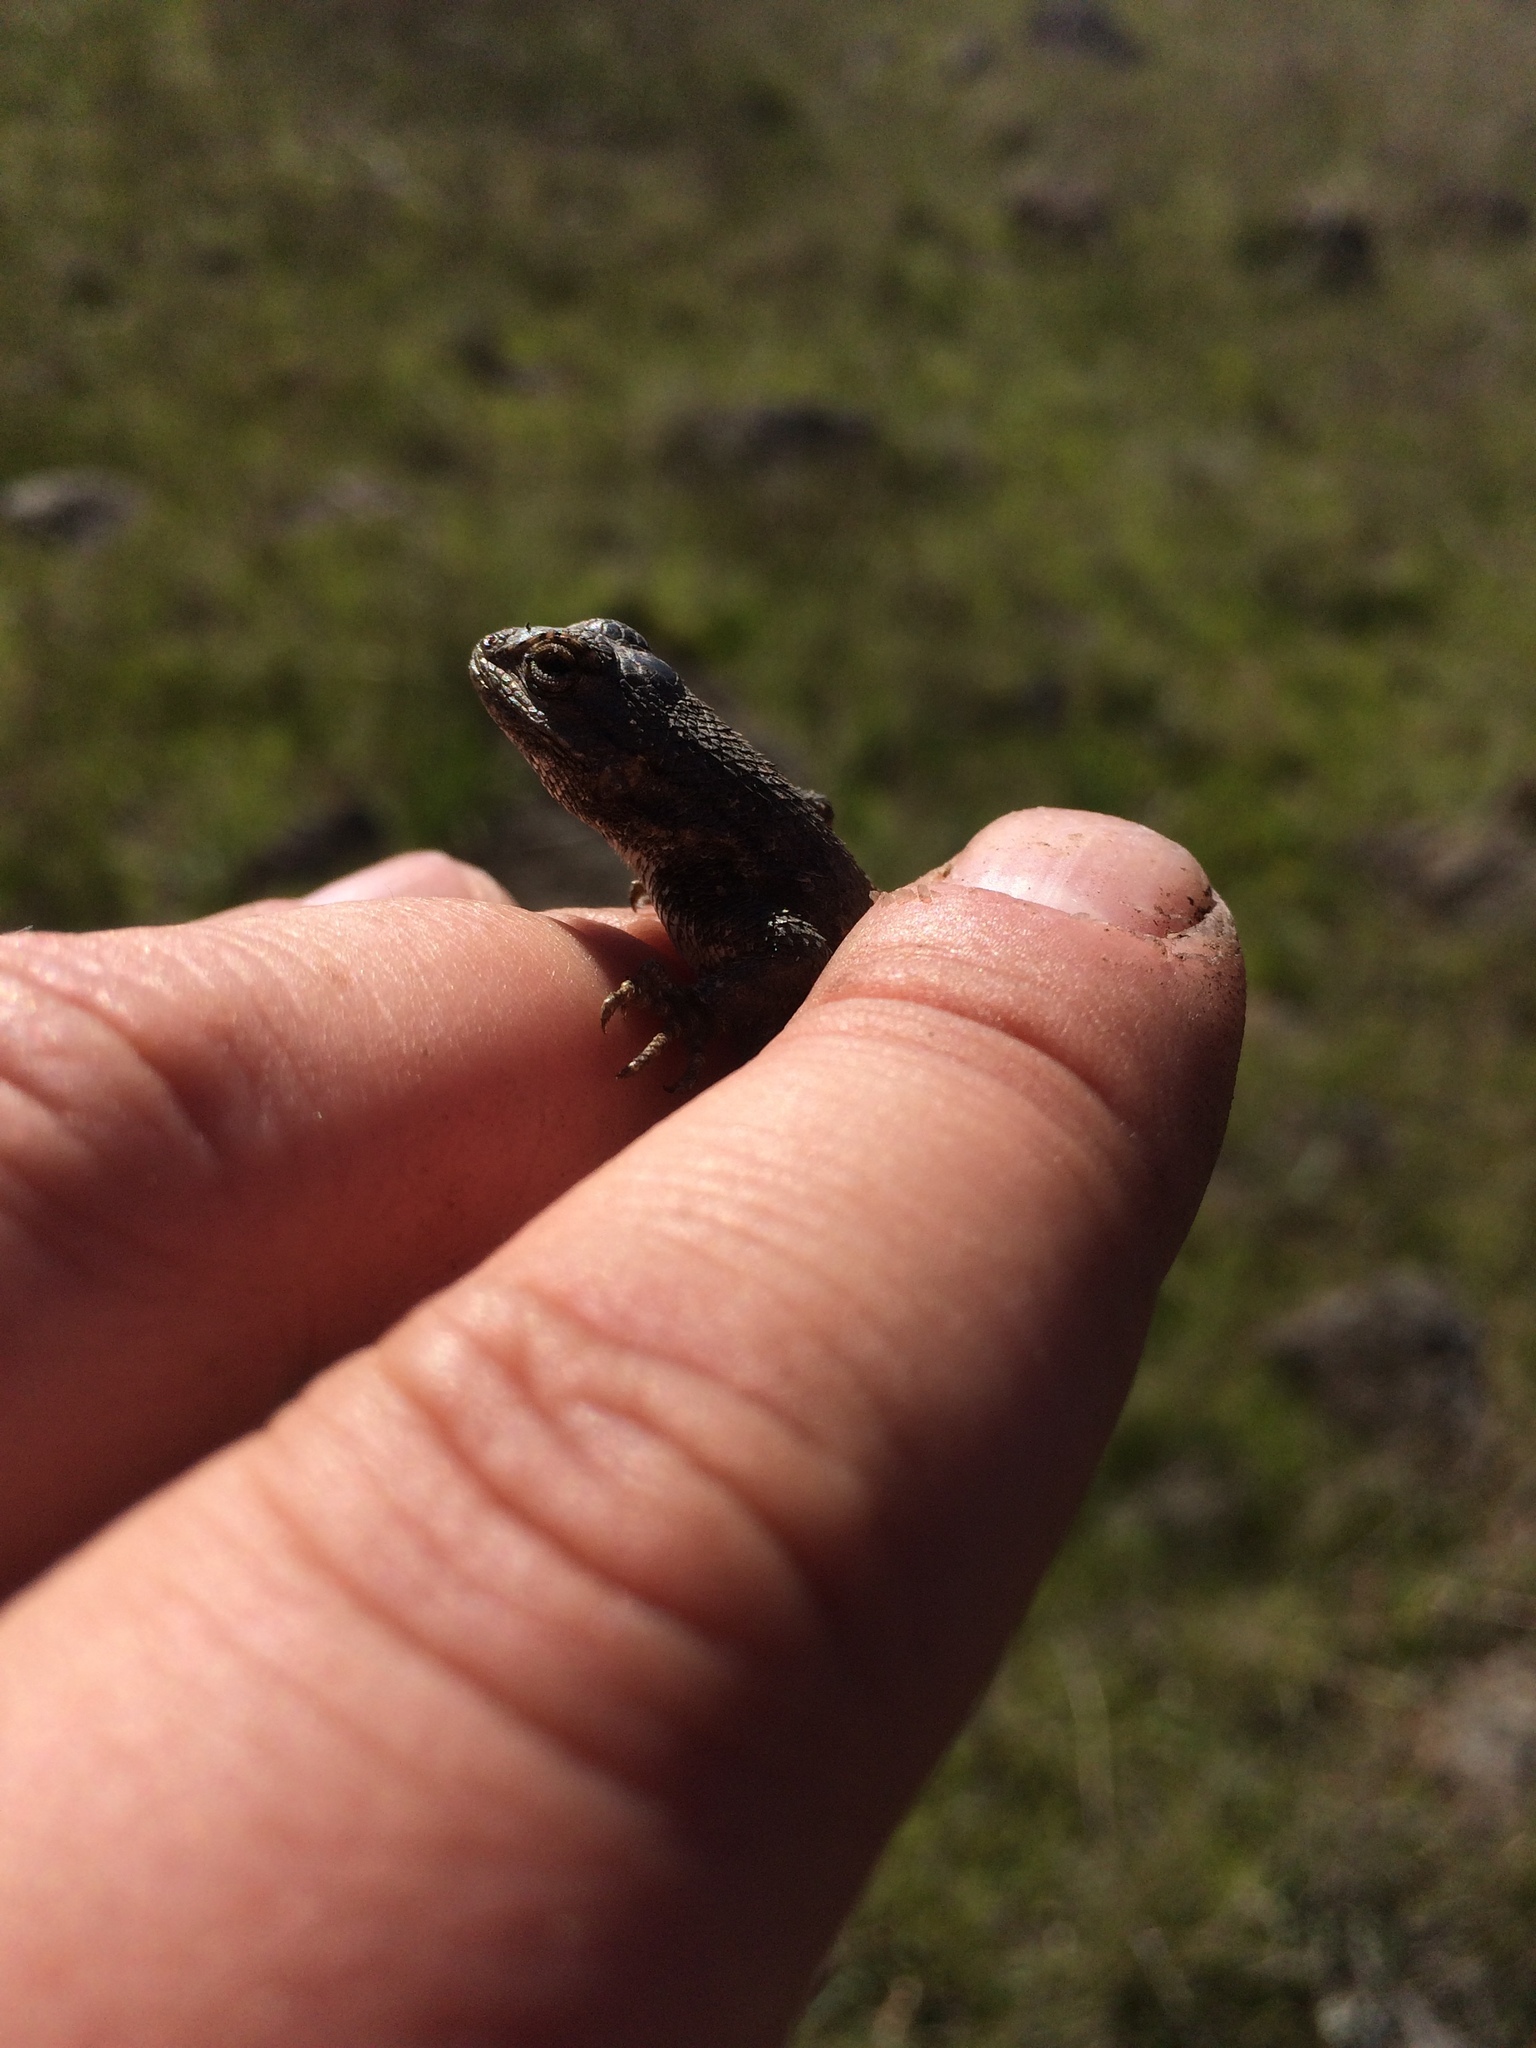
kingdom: Animalia
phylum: Chordata
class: Squamata
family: Phrynosomatidae
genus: Sceloporus
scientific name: Sceloporus occidentalis
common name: Western fence lizard
